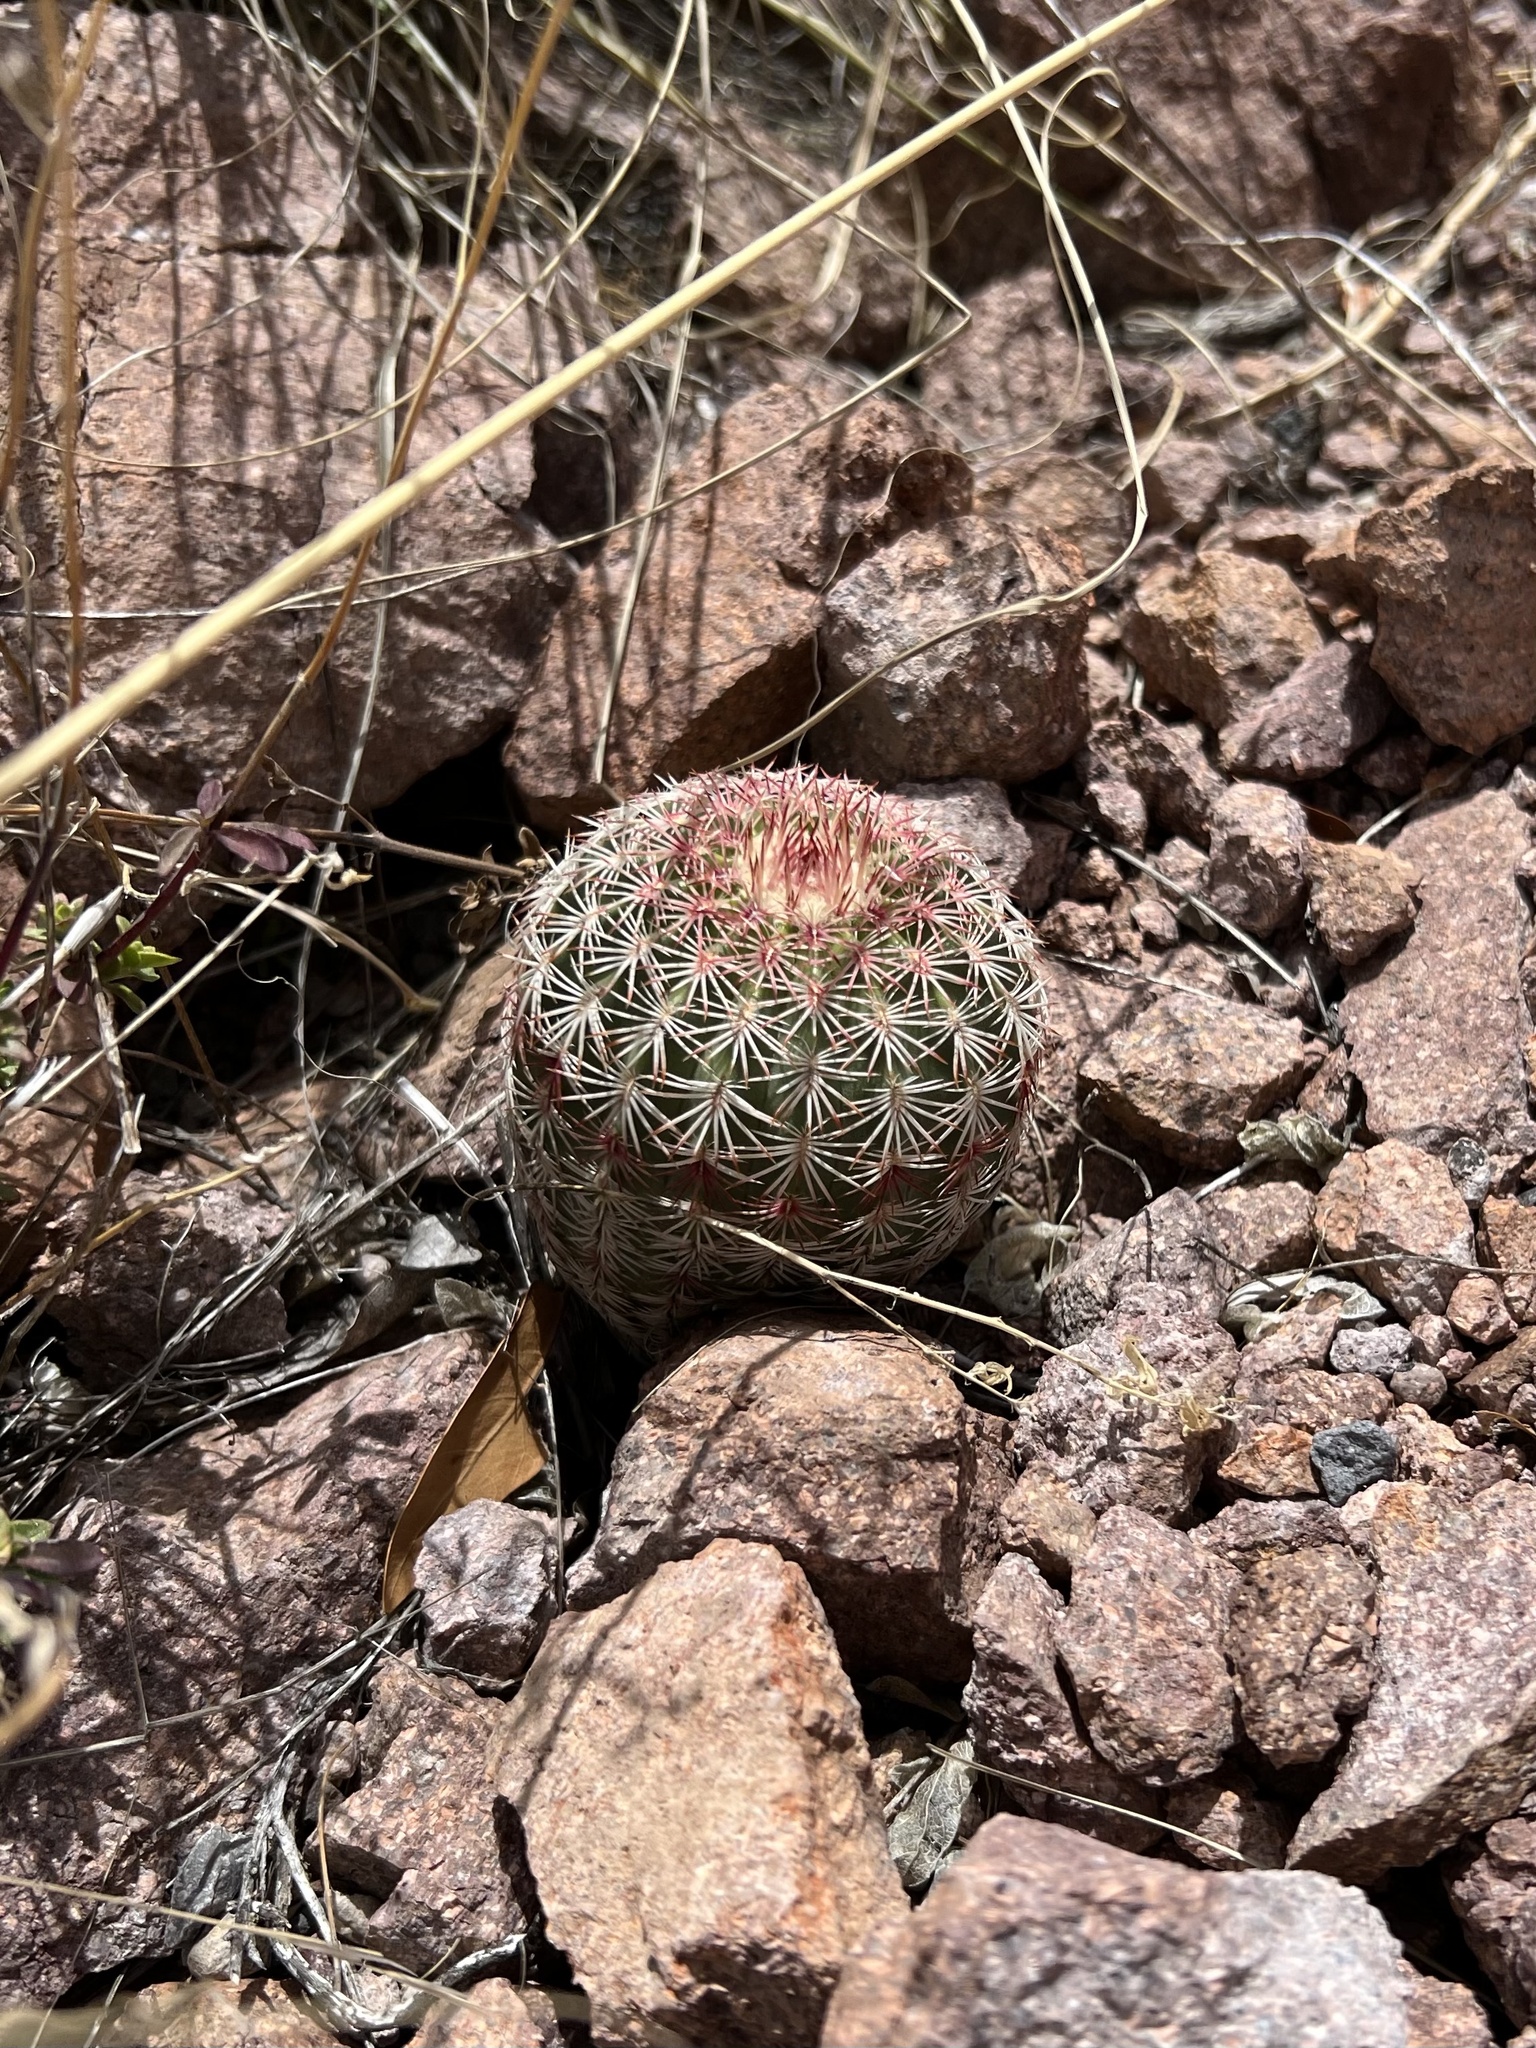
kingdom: Plantae
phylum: Tracheophyta
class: Magnoliopsida
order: Caryophyllales
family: Cactaceae
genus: Echinocereus
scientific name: Echinocereus rigidissimus
